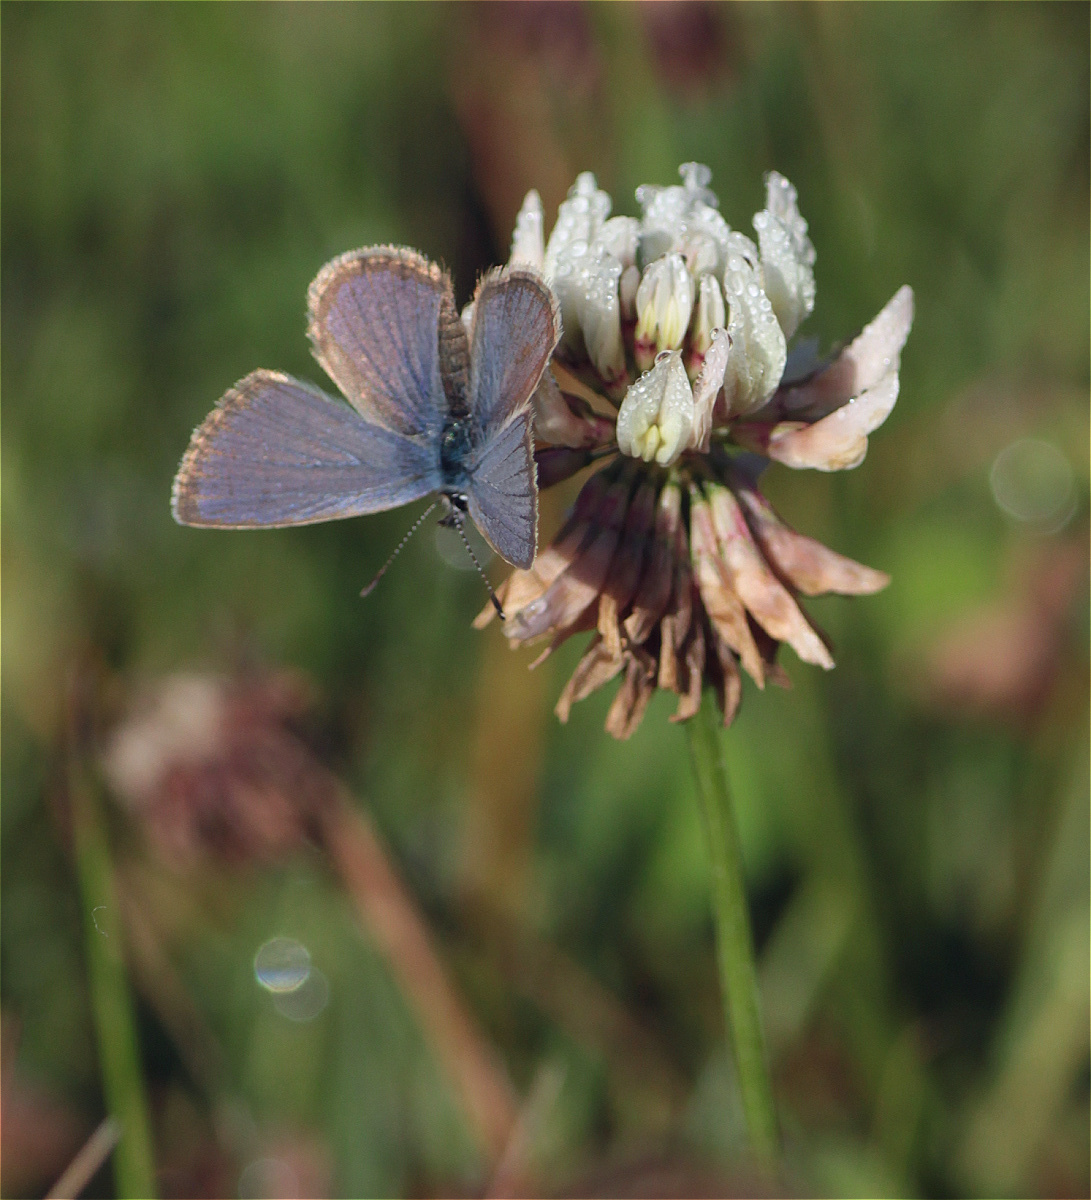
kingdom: Animalia
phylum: Arthropoda
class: Insecta
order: Lepidoptera
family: Lycaenidae
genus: Hemiargus
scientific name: Hemiargus hanno
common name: Common blue
